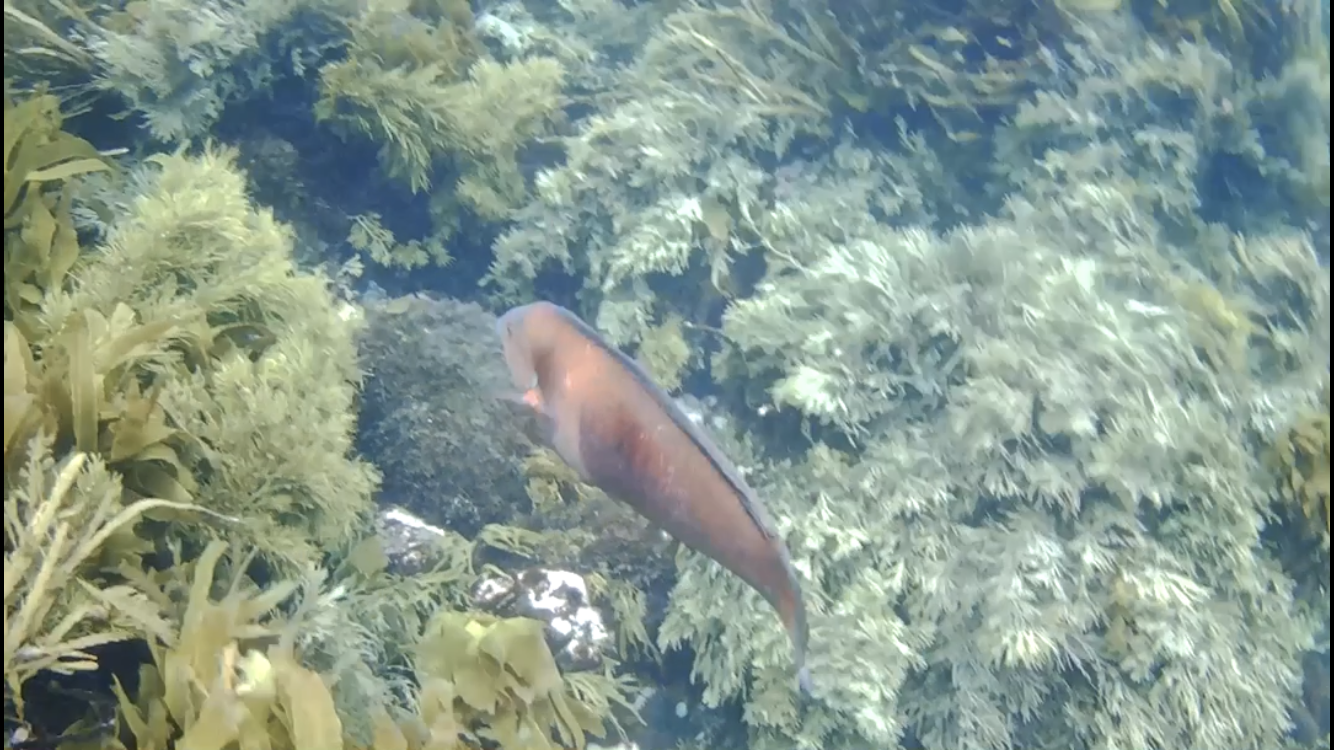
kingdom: Animalia
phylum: Chordata
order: Perciformes
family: Labridae
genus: Coris
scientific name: Coris sandeyeri
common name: Sandager's wrasse
